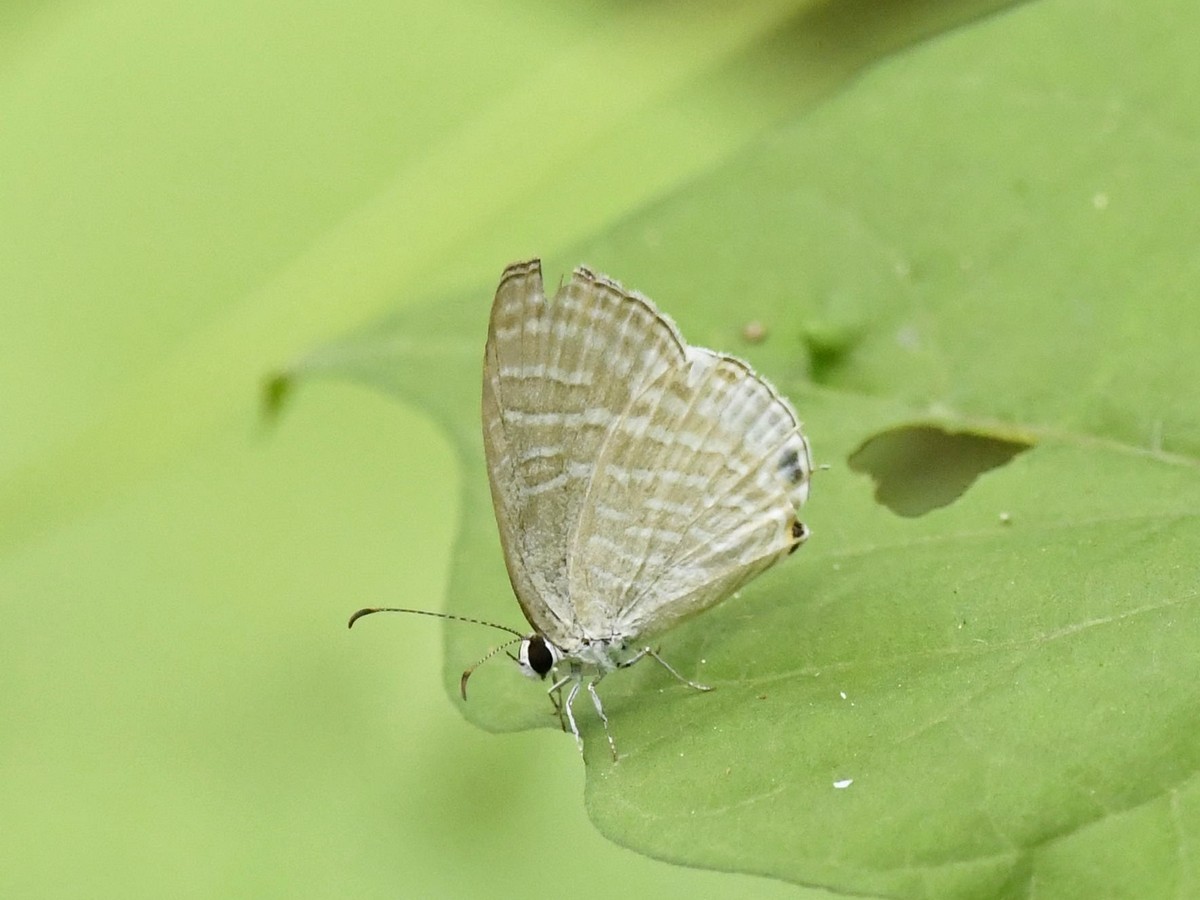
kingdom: Animalia
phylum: Arthropoda
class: Insecta
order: Lepidoptera
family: Lycaenidae
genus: Jamides
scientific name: Jamides celeno
